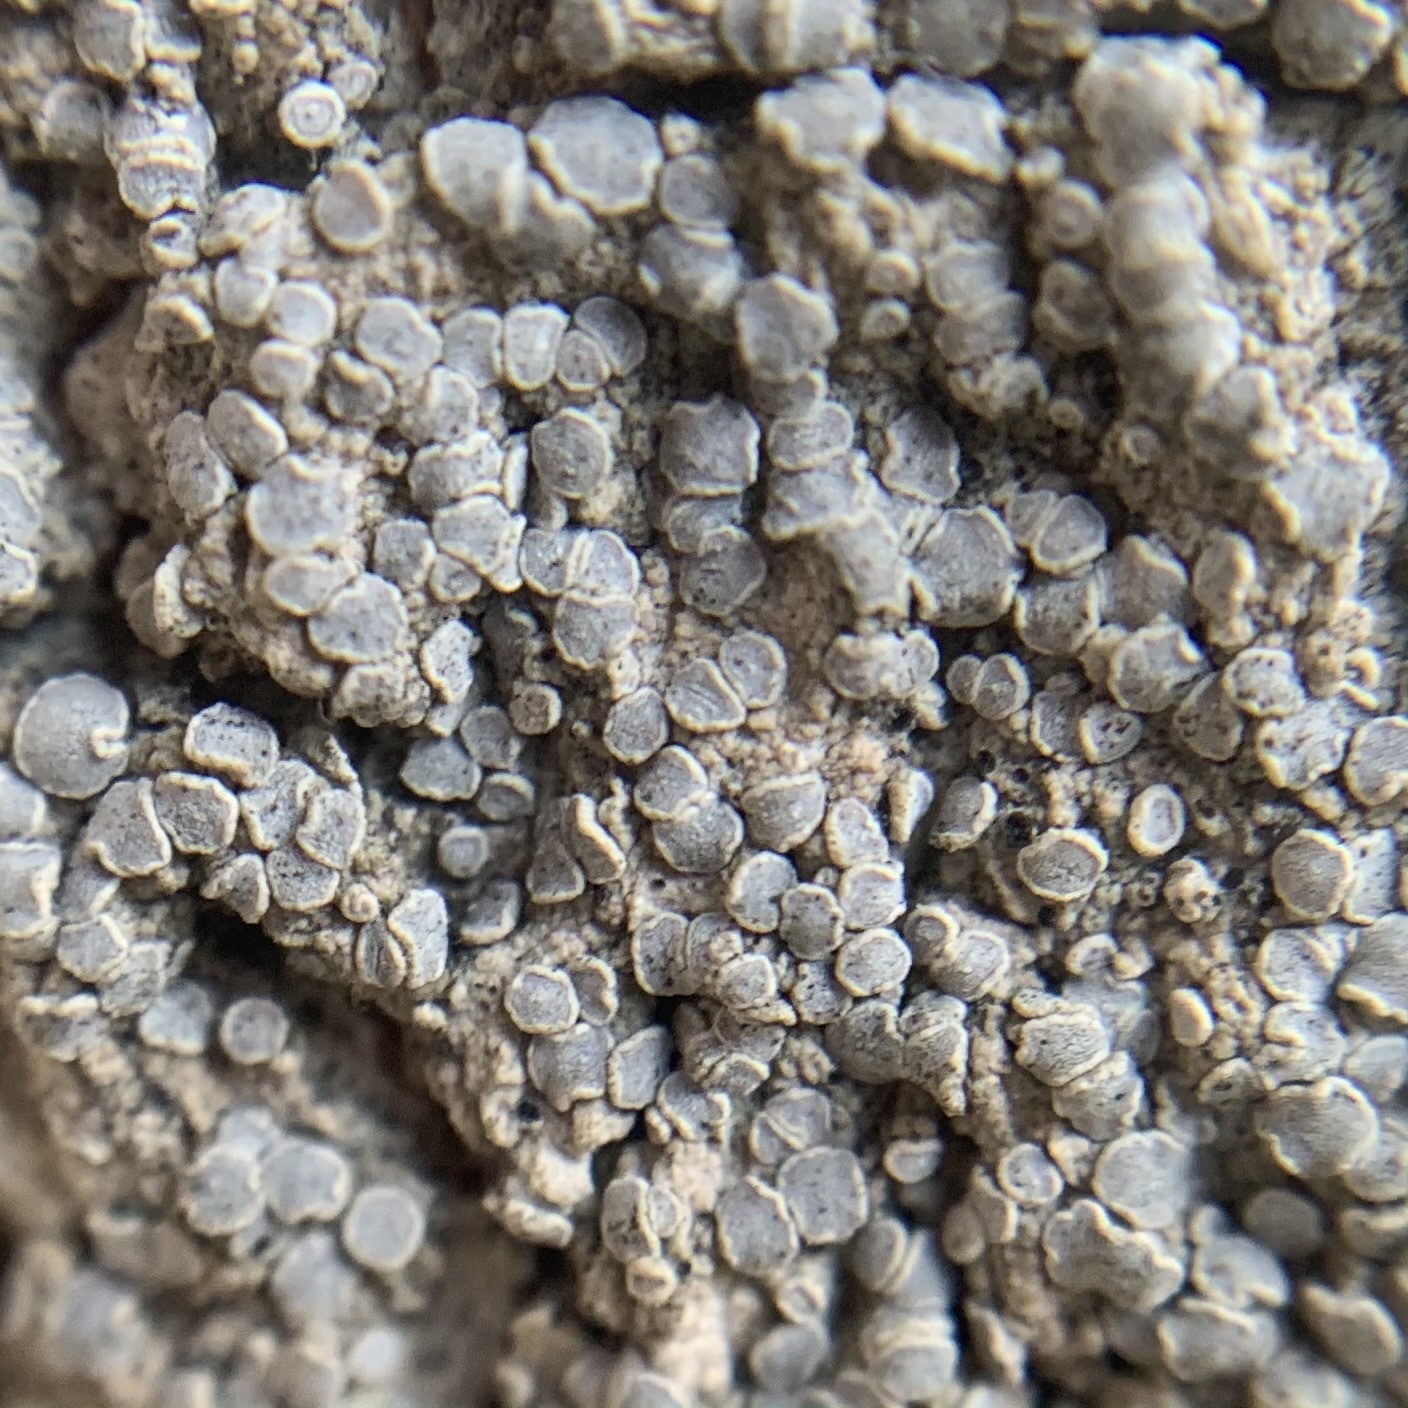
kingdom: Fungi
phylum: Ascomycota
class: Arthoniomycetes
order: Arthoniales
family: Roccellaceae
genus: Sigridea
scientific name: Sigridea californica
